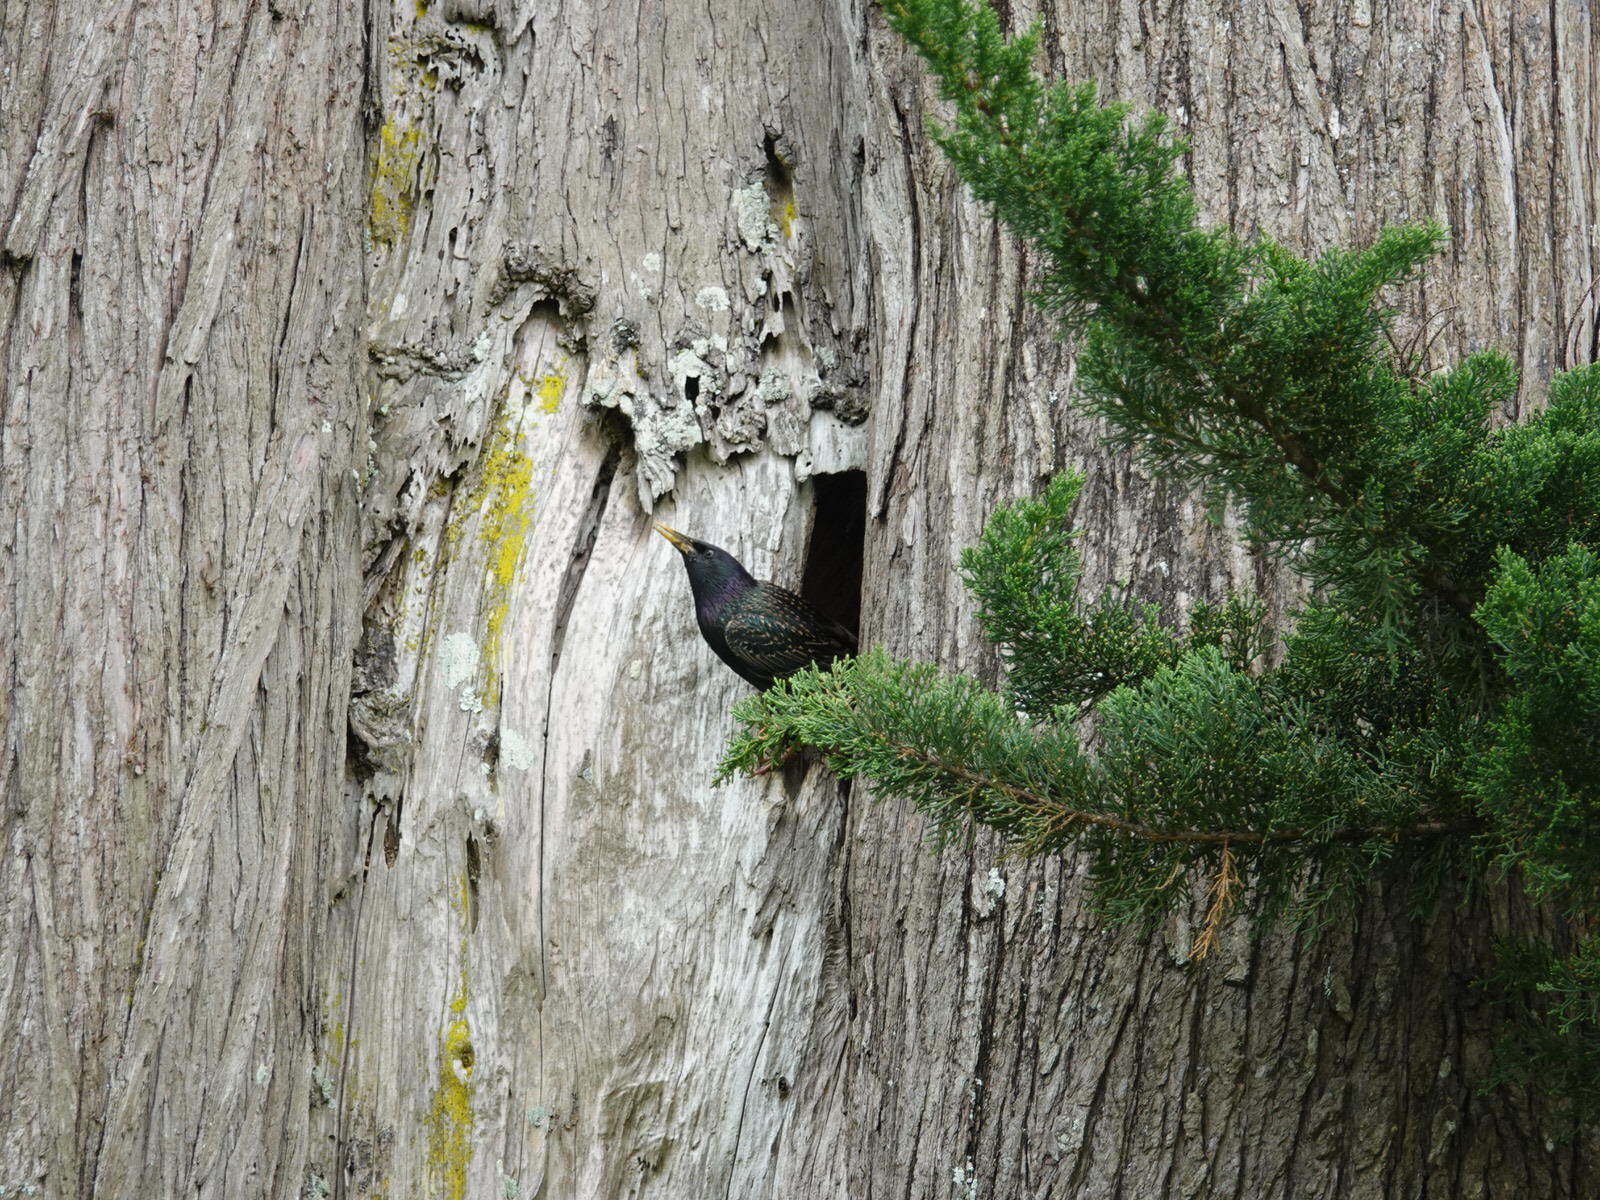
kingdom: Animalia
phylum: Chordata
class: Aves
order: Passeriformes
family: Sturnidae
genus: Sturnus
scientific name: Sturnus vulgaris
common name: Common starling
